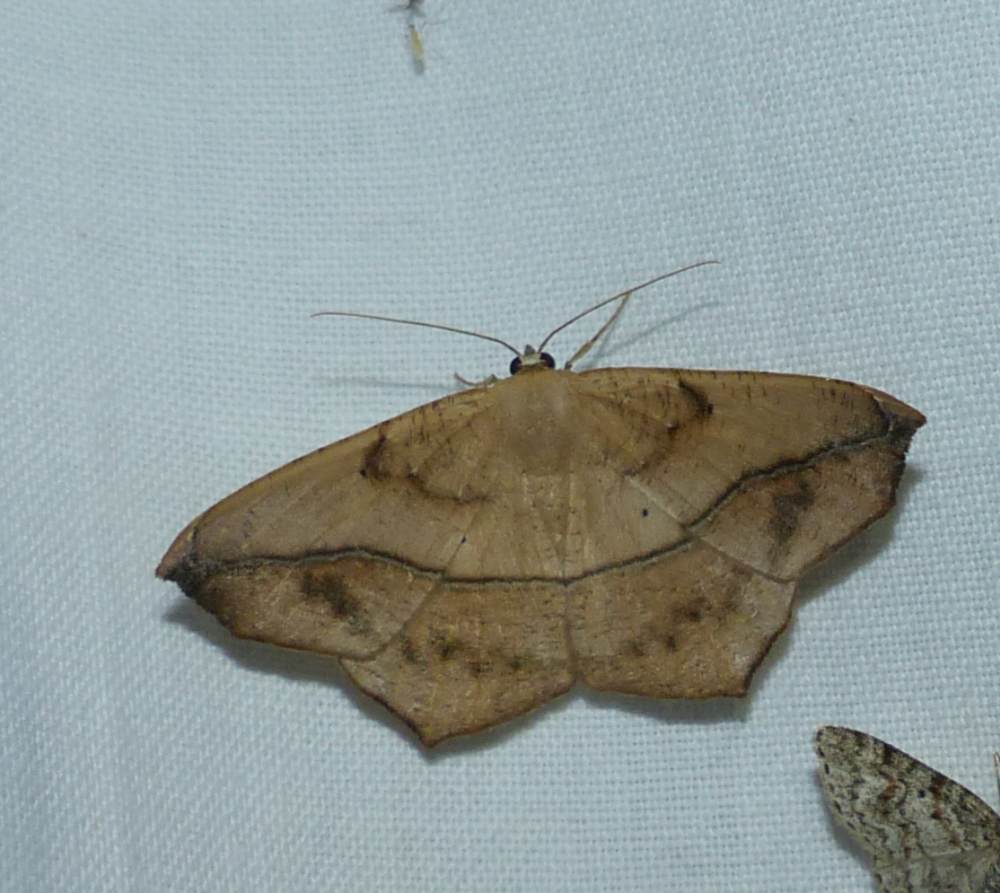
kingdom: Animalia
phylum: Arthropoda
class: Insecta
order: Lepidoptera
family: Geometridae
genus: Prochoerodes
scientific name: Prochoerodes lineola
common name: Large maple spanworm
